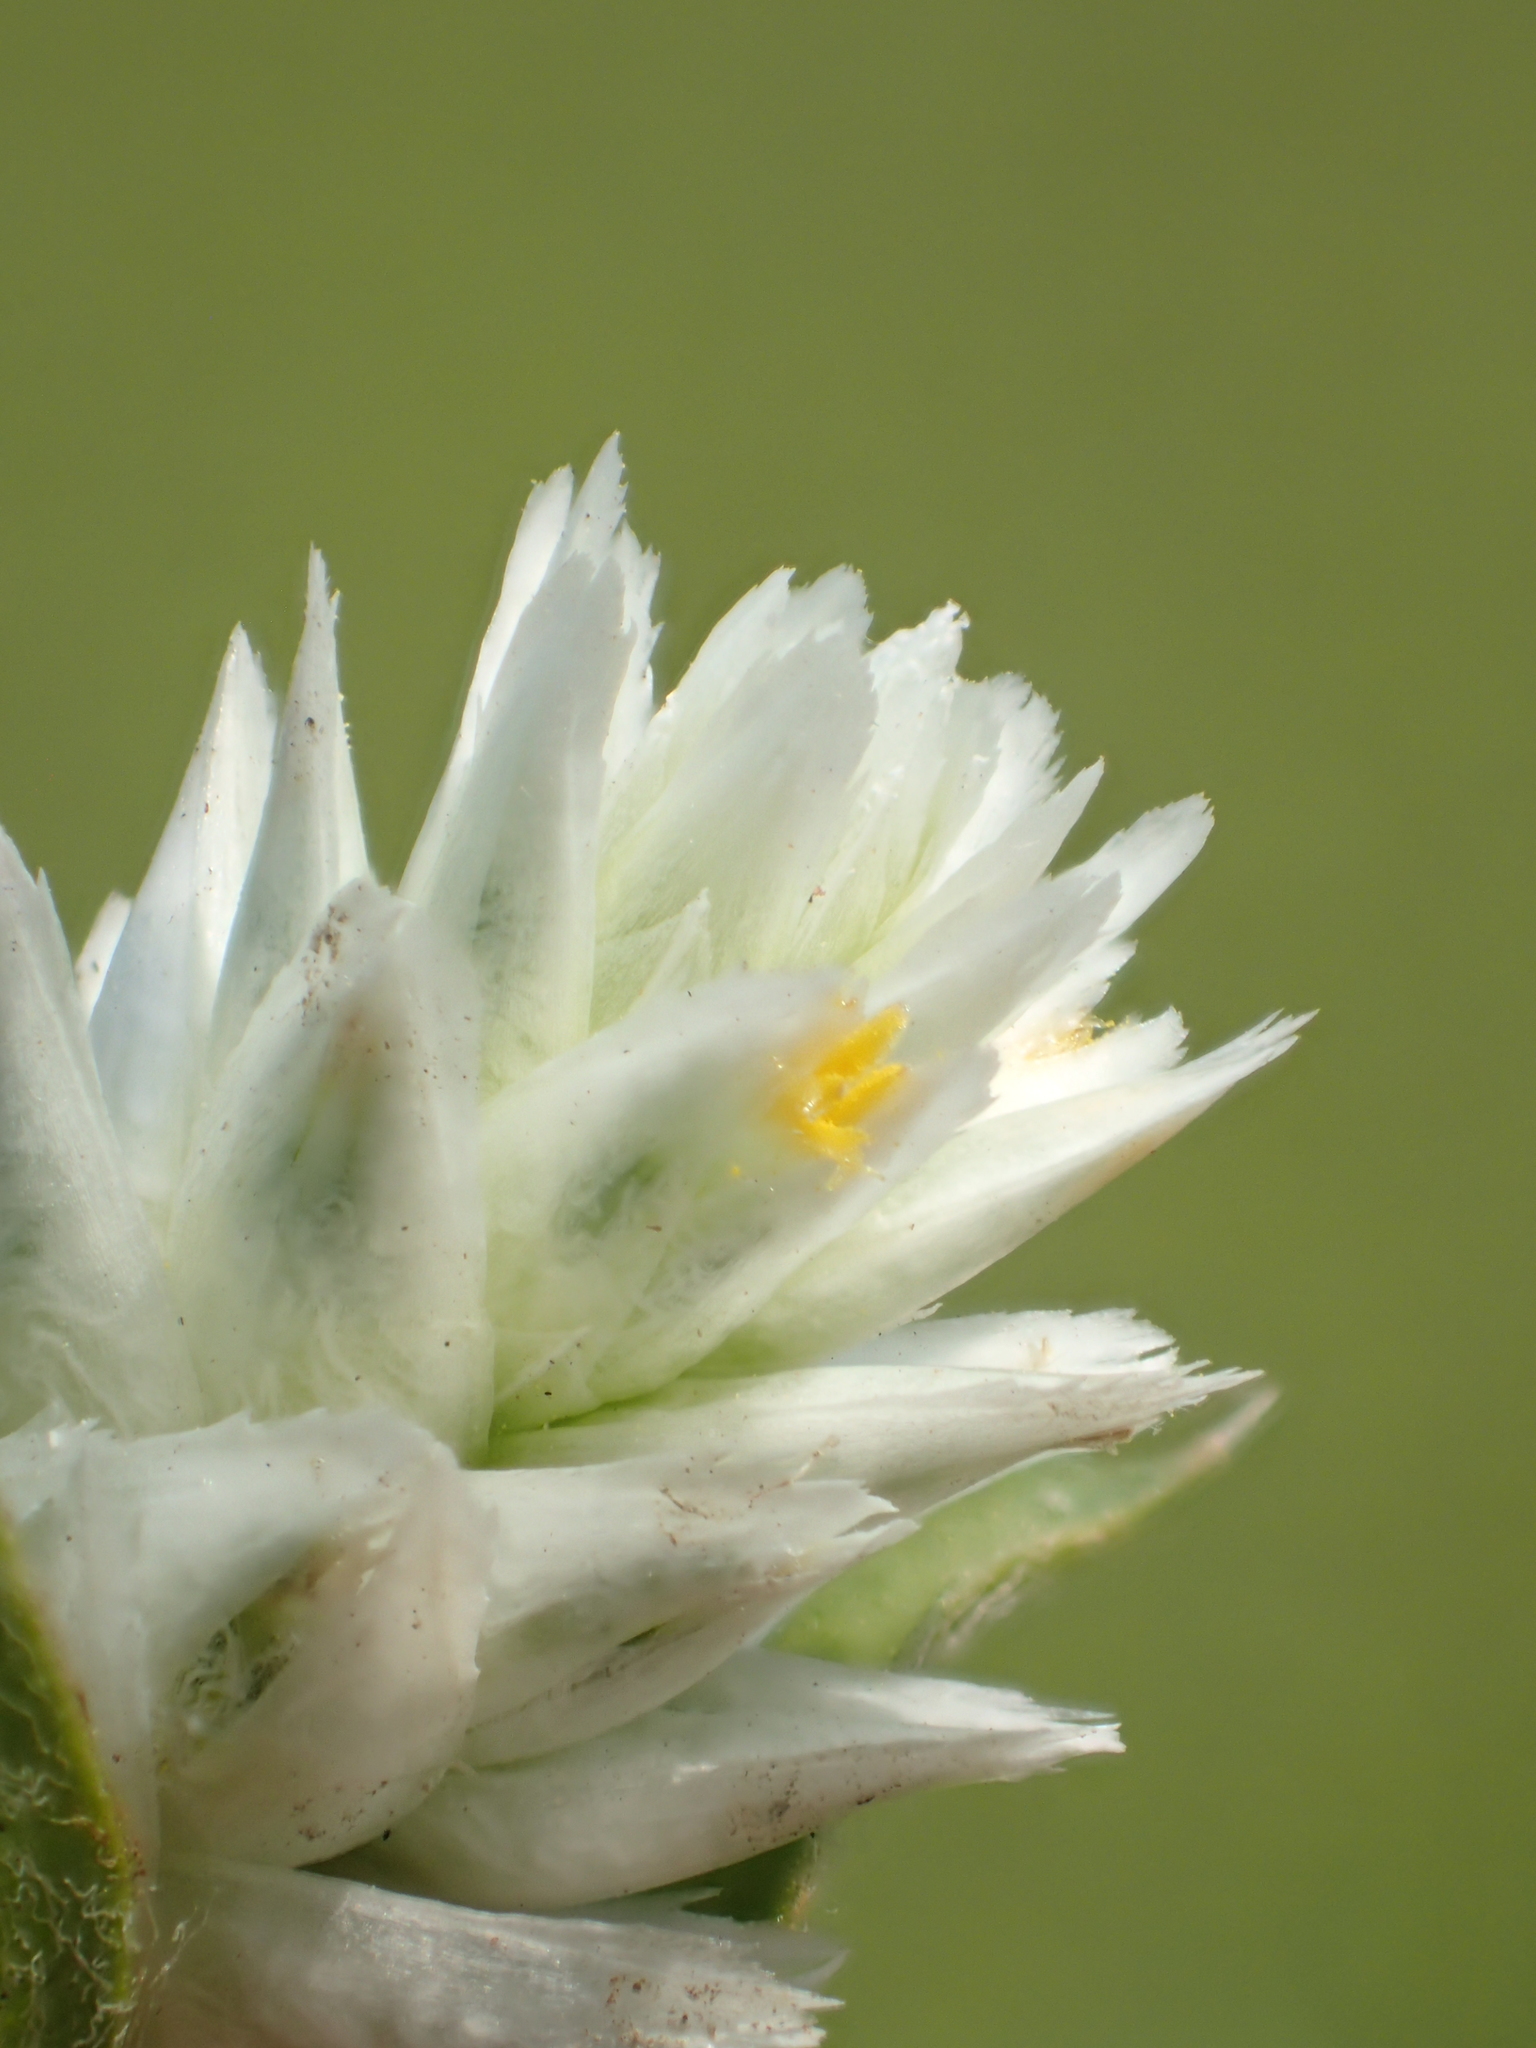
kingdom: Plantae
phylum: Tracheophyta
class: Magnoliopsida
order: Caryophyllales
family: Amaranthaceae
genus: Gomphrena
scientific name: Gomphrena serrata
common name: Arrasa con todo
